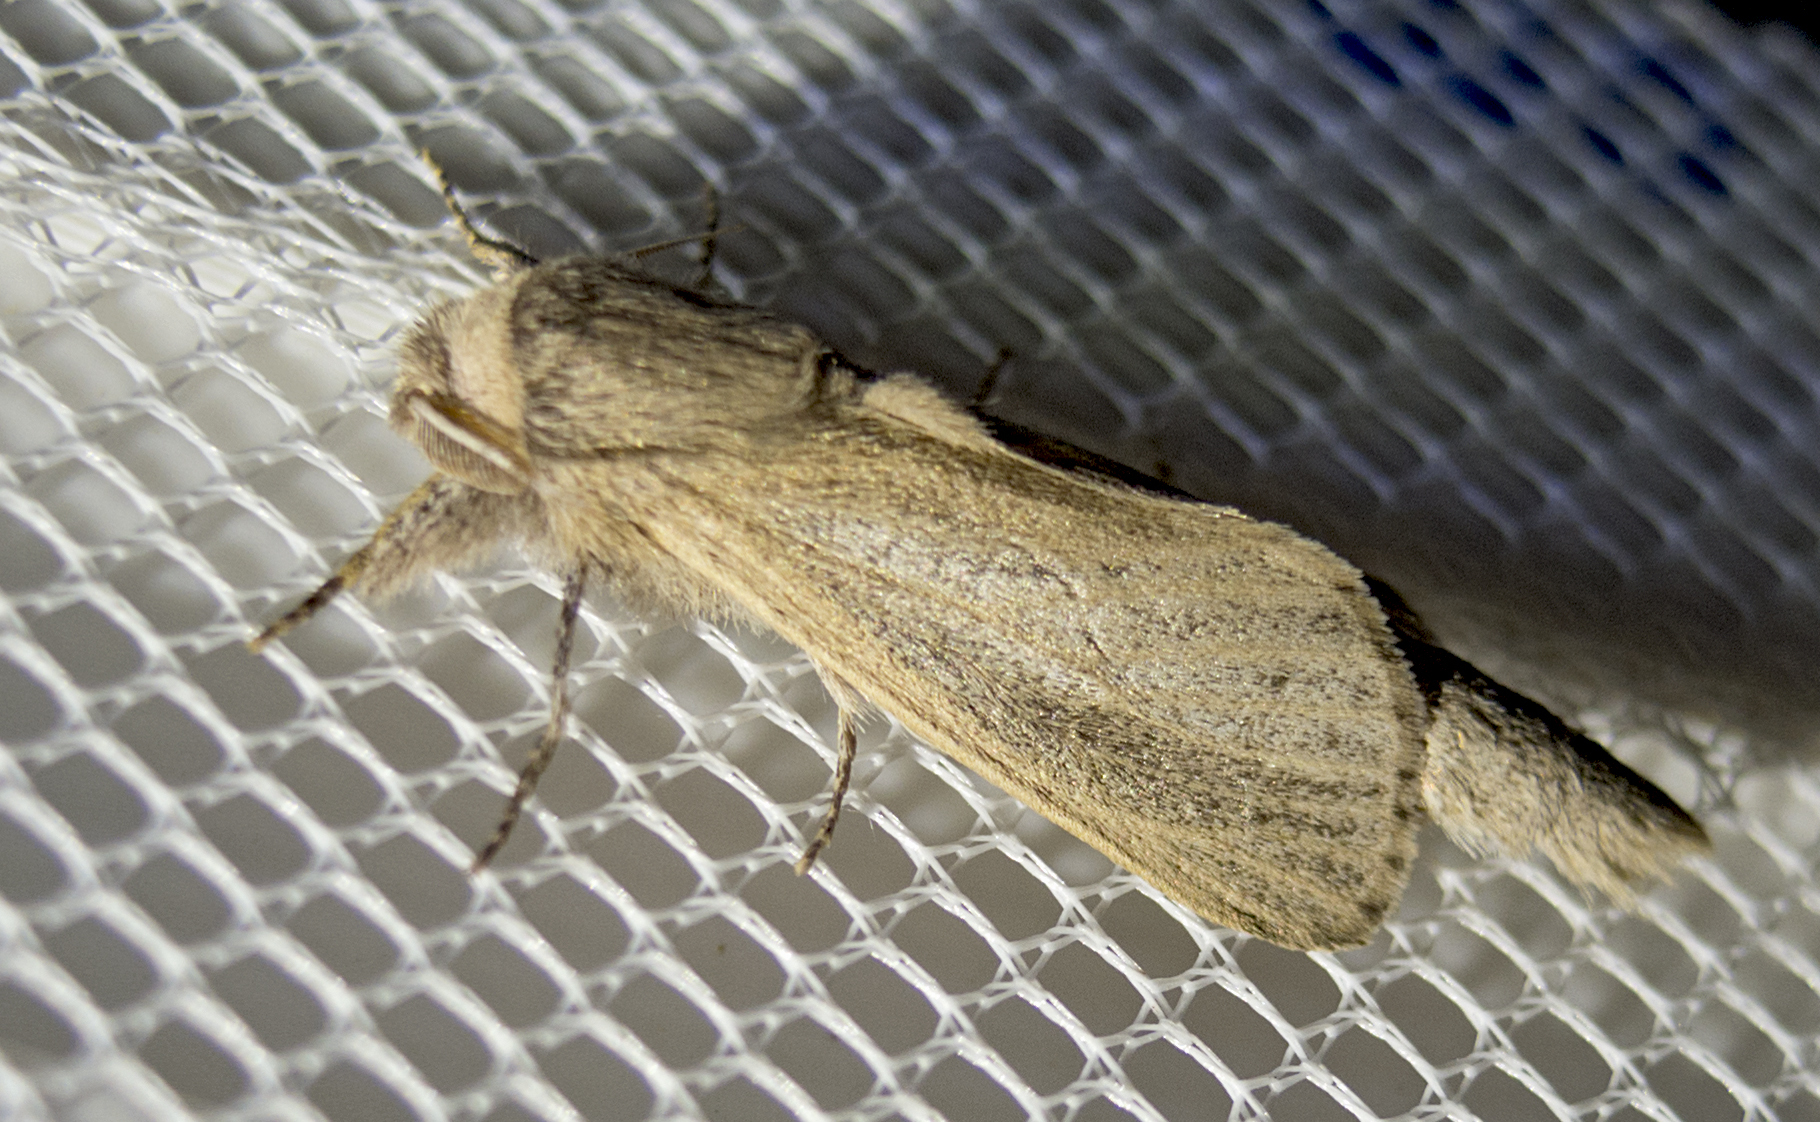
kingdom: Animalia
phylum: Arthropoda
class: Insecta
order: Lepidoptera
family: Cossidae
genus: Phragmataecia
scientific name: Phragmataecia castaneae
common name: Reed leopard
